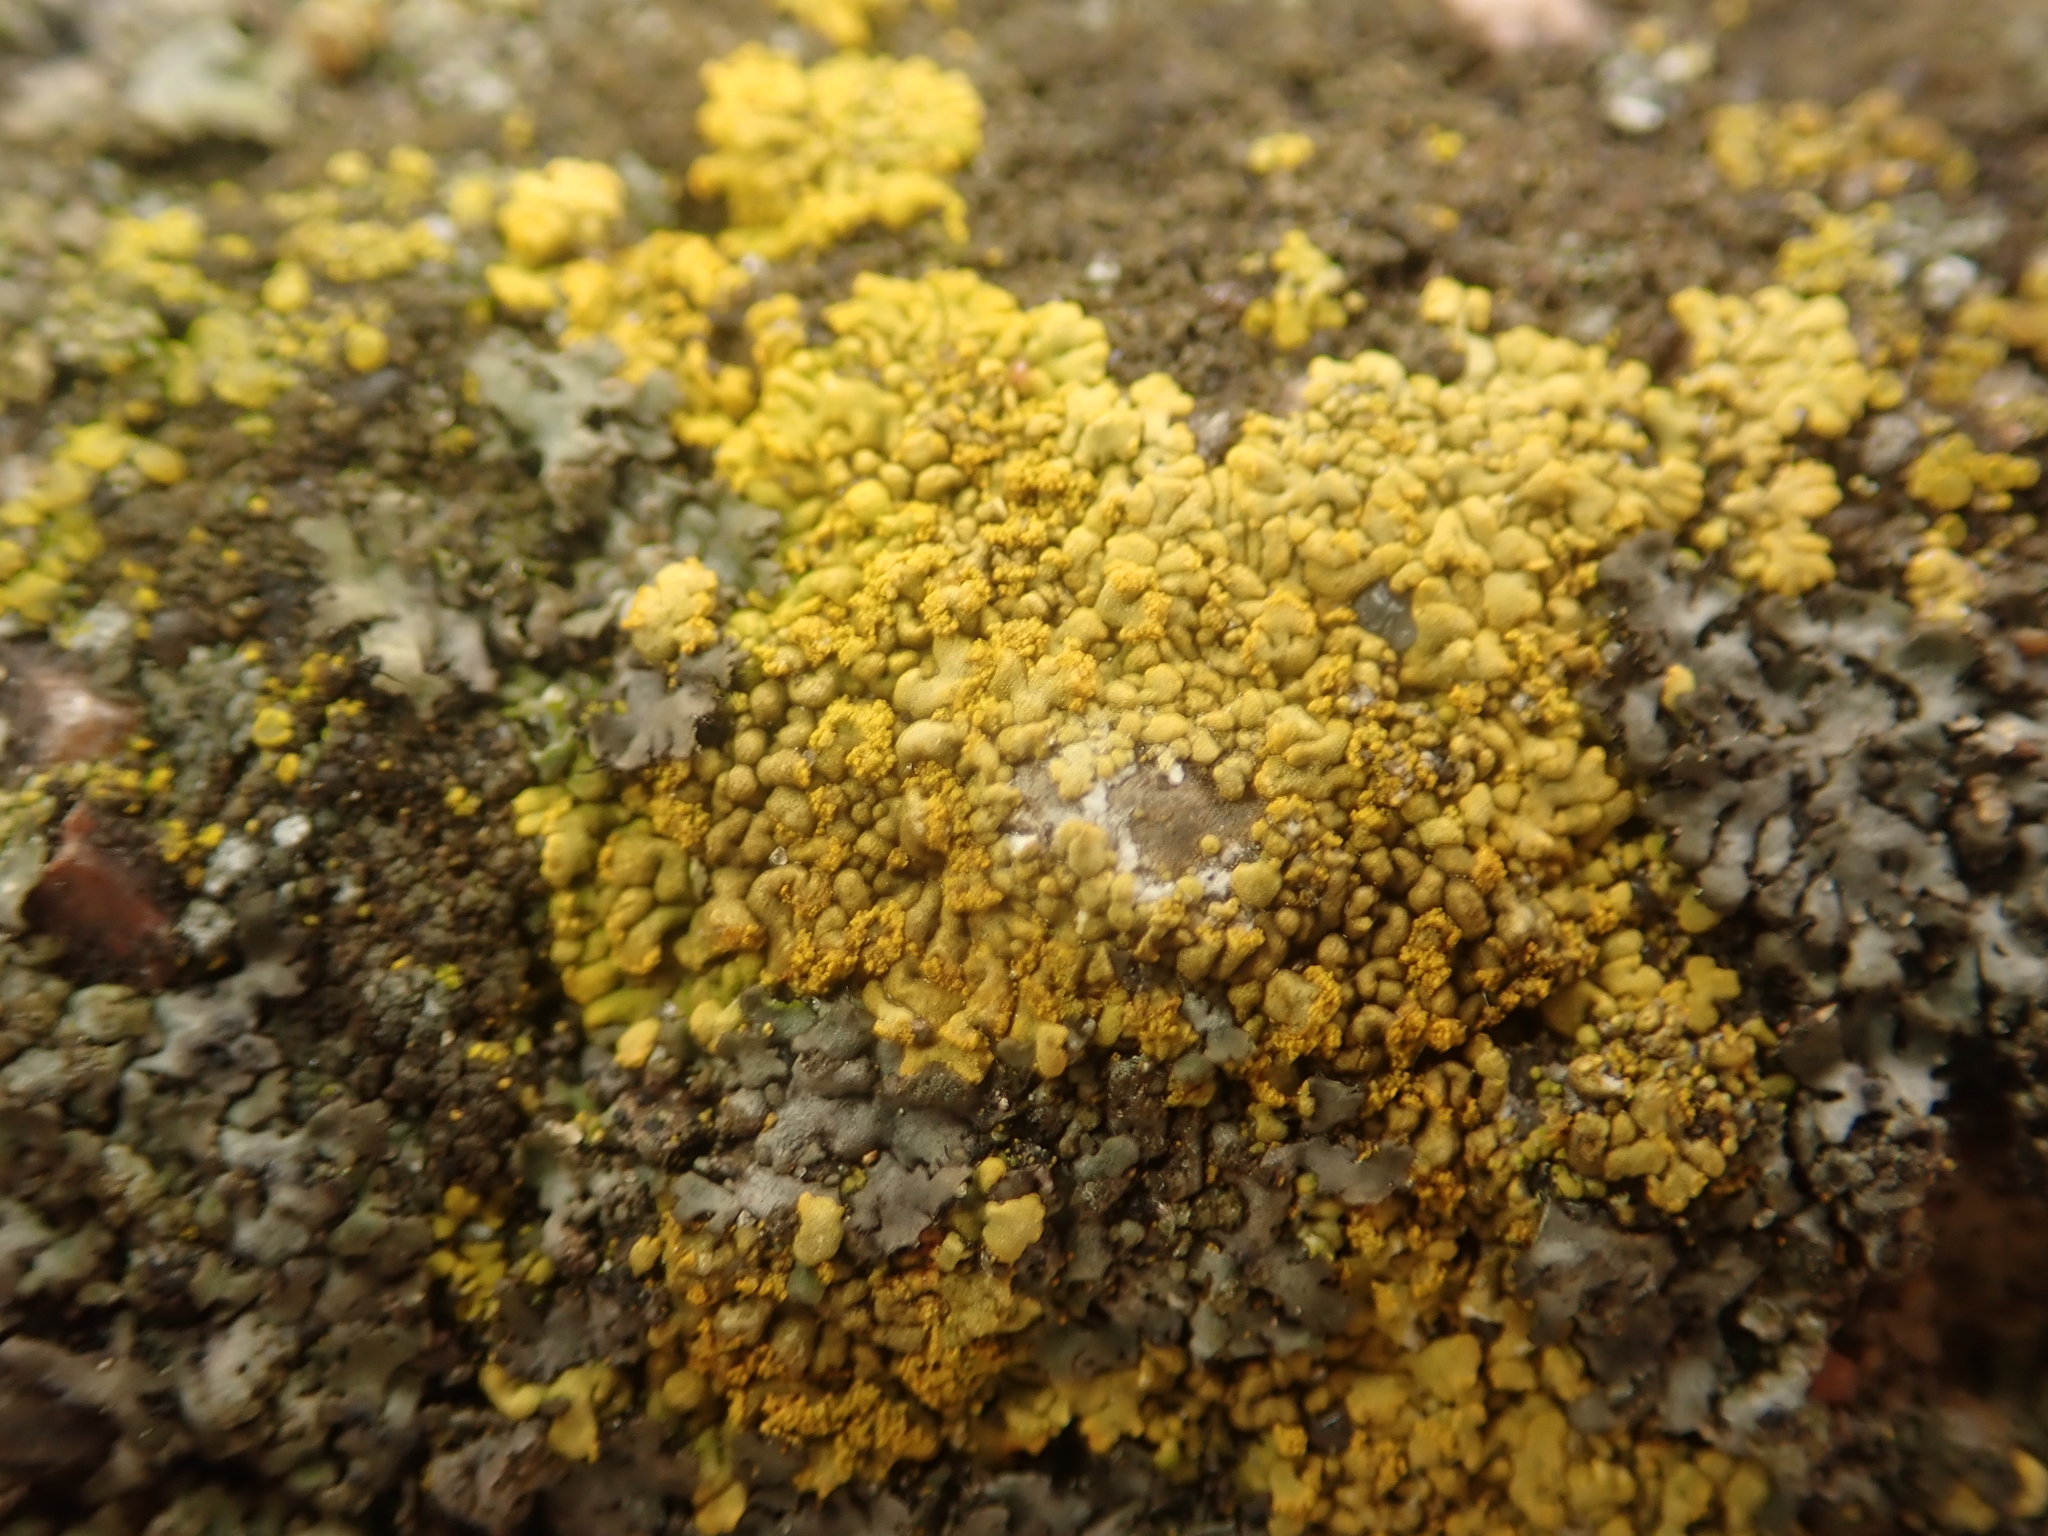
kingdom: Fungi
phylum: Ascomycota
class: Lecanoromycetes
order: Teloschistales
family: Teloschistaceae
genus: Calogaya
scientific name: Calogaya decipiens
